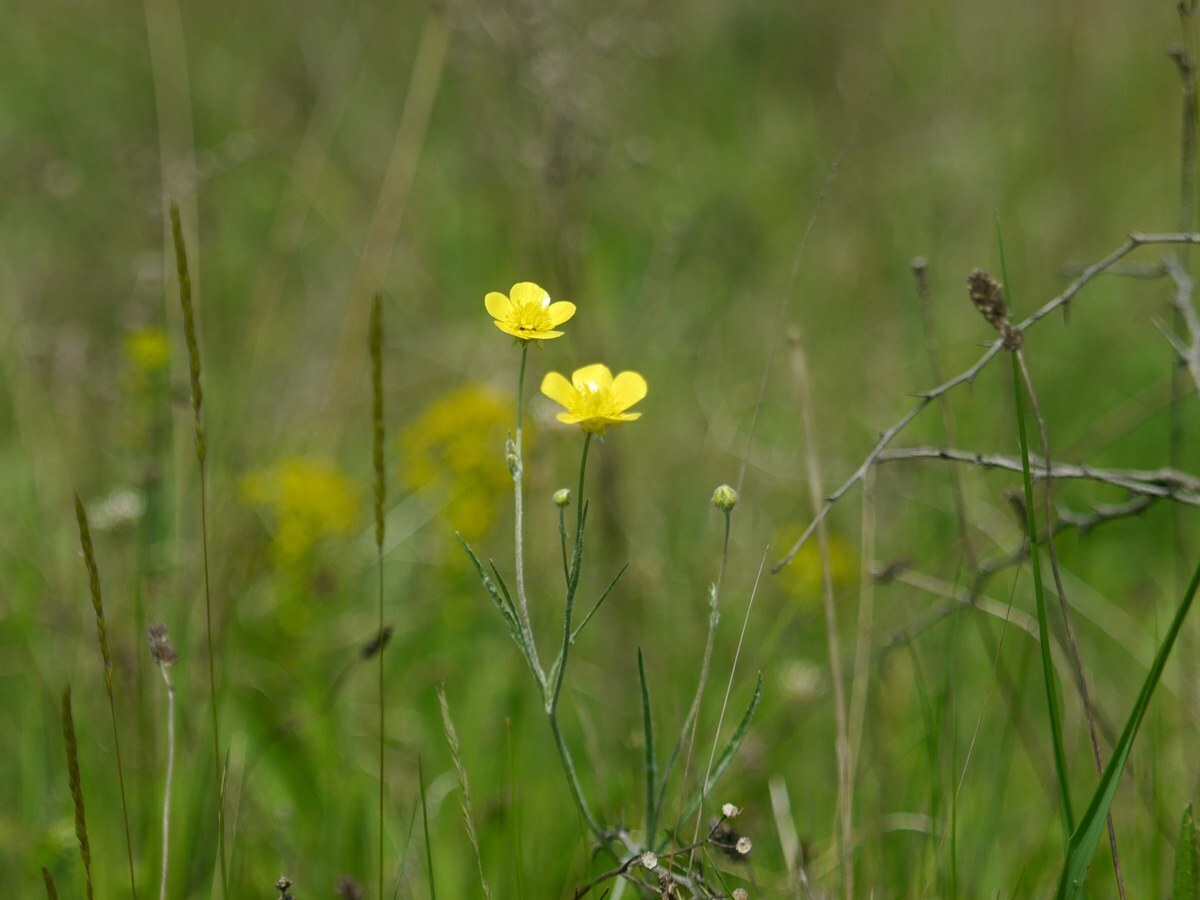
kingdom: Plantae
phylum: Tracheophyta
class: Magnoliopsida
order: Ranunculales
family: Ranunculaceae
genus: Ranunculus
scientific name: Ranunculus illyricus
